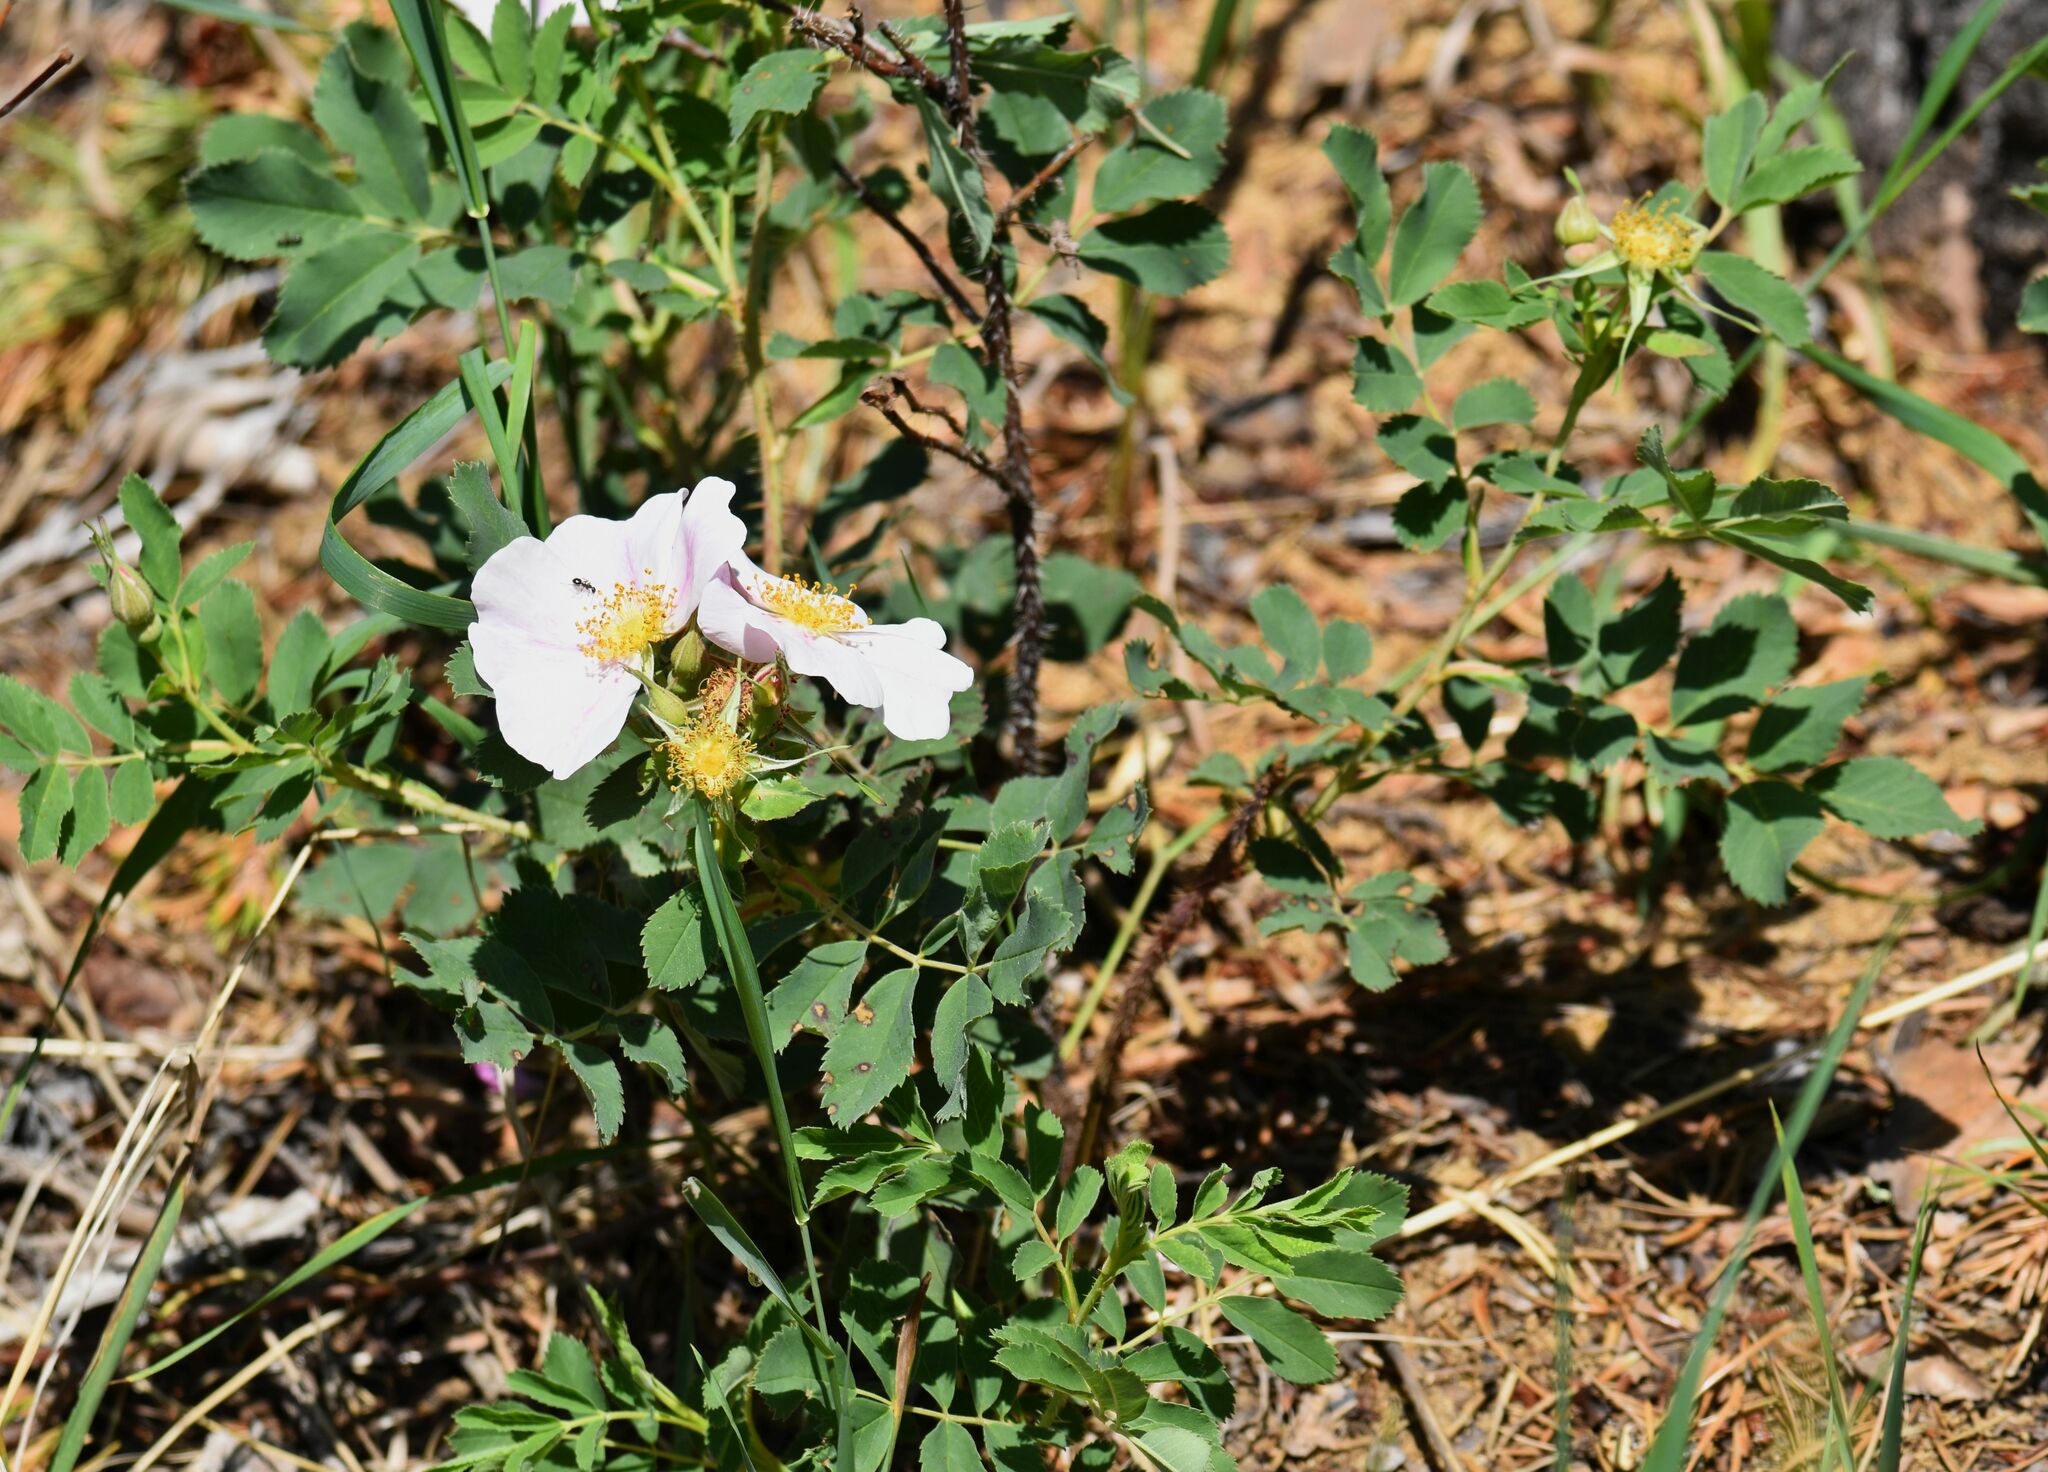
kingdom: Plantae
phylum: Tracheophyta
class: Magnoliopsida
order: Rosales
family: Rosaceae
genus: Rosa
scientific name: Rosa arkansana
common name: Prairie rose
